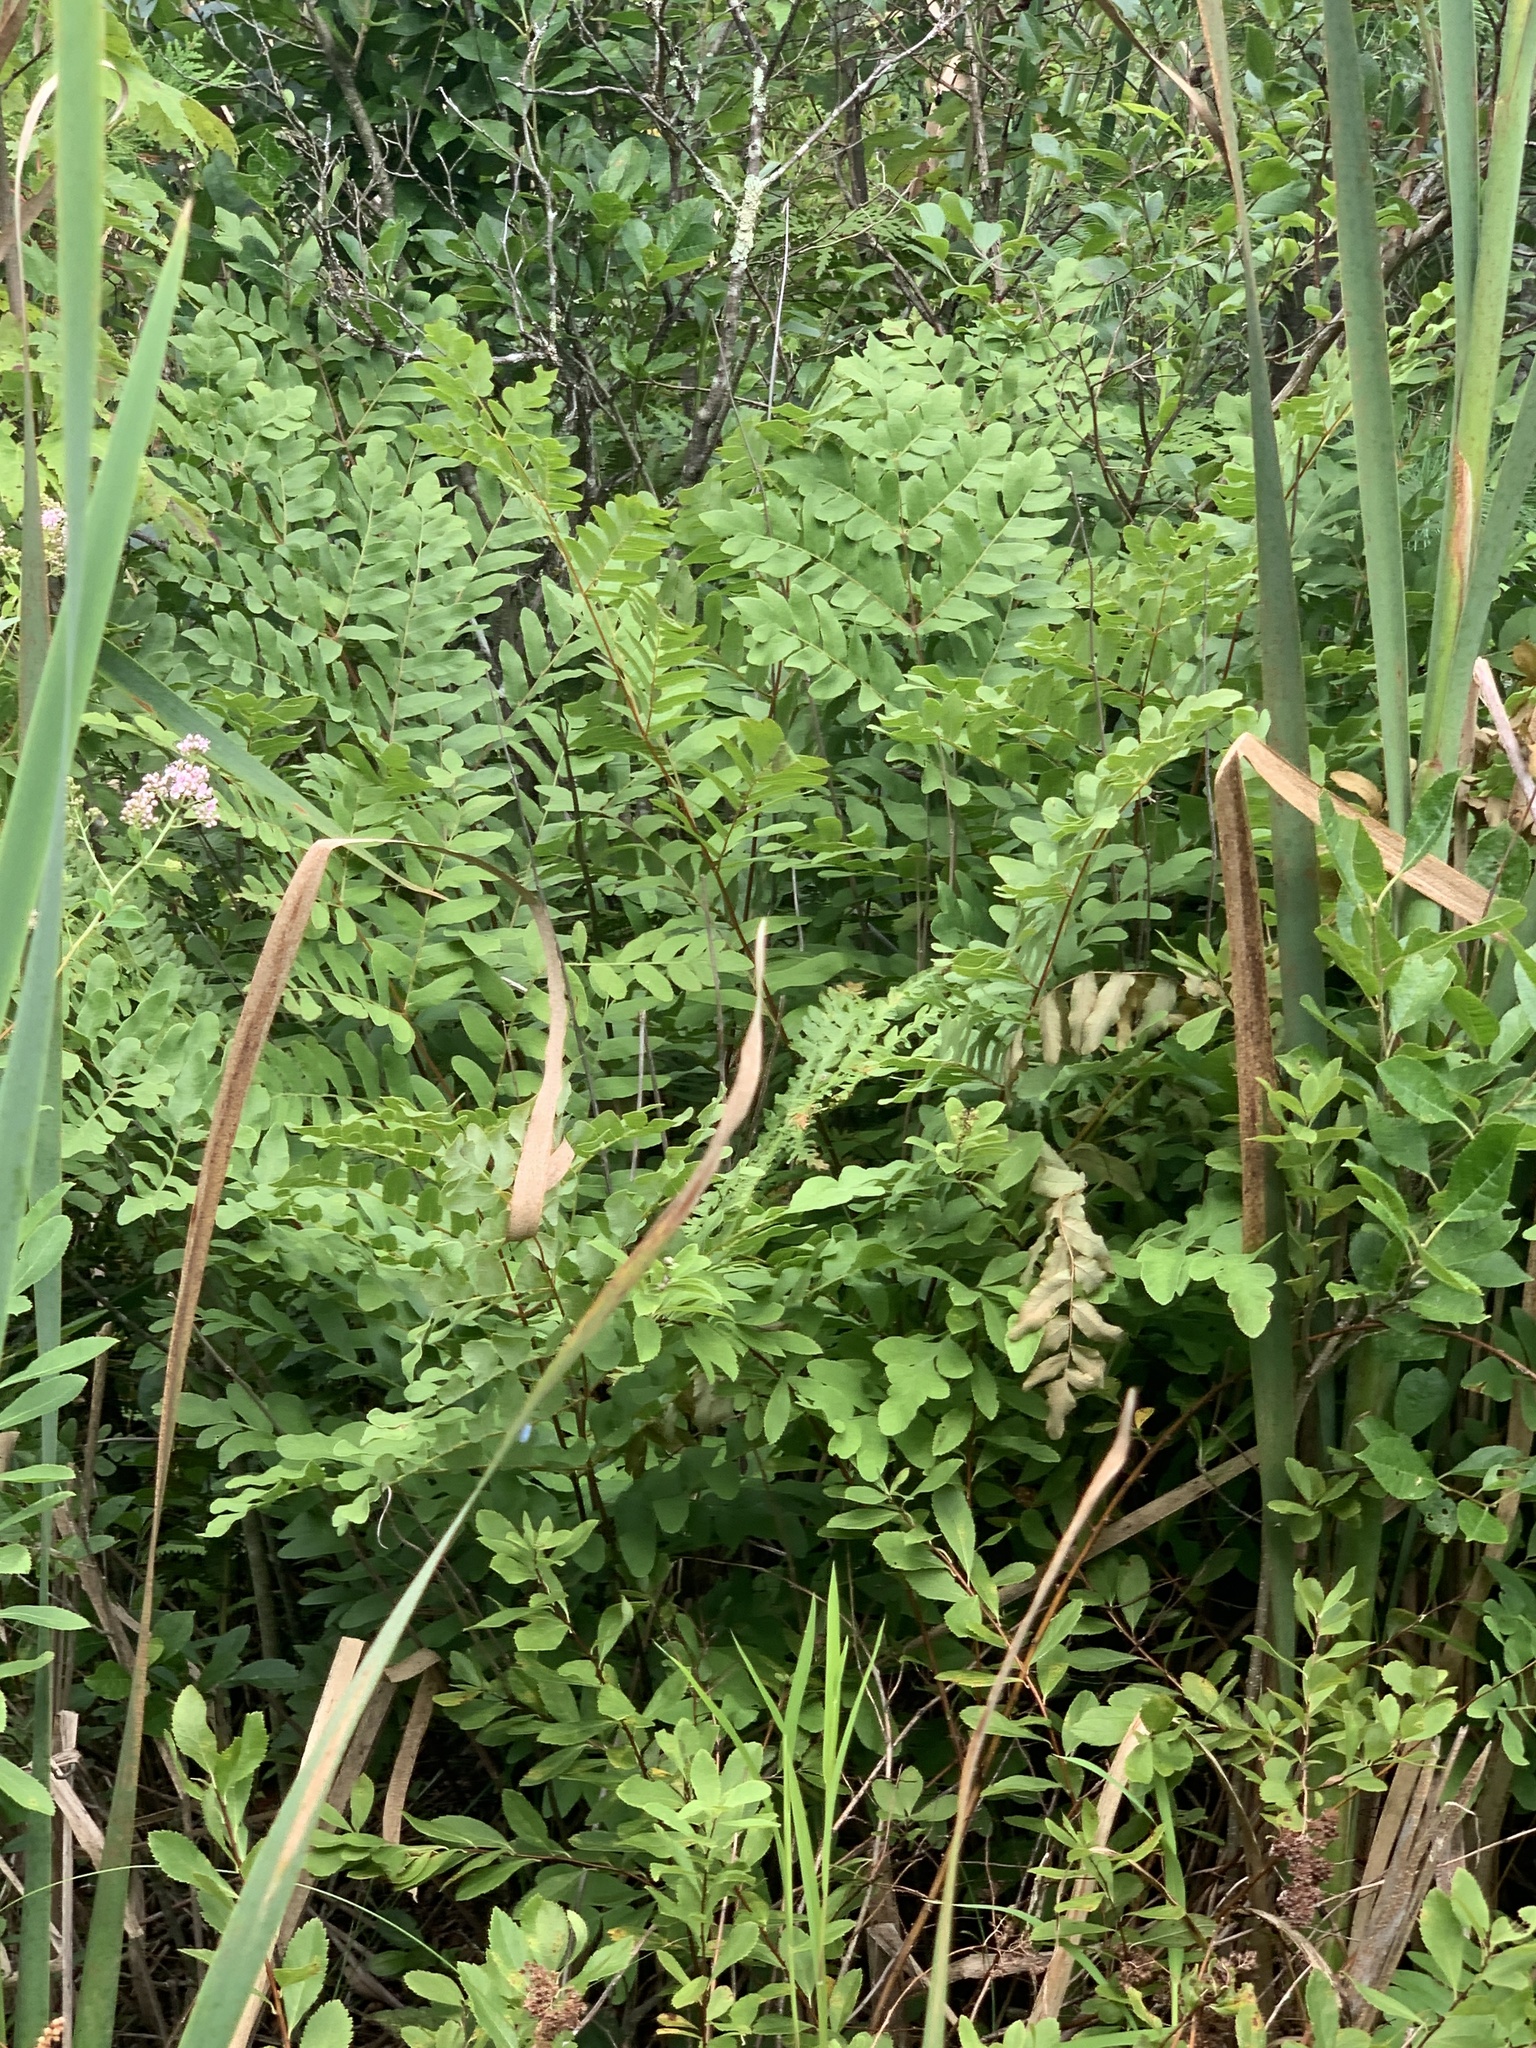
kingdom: Plantae
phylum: Tracheophyta
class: Polypodiopsida
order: Osmundales
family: Osmundaceae
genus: Osmunda
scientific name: Osmunda spectabilis
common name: American royal fern
